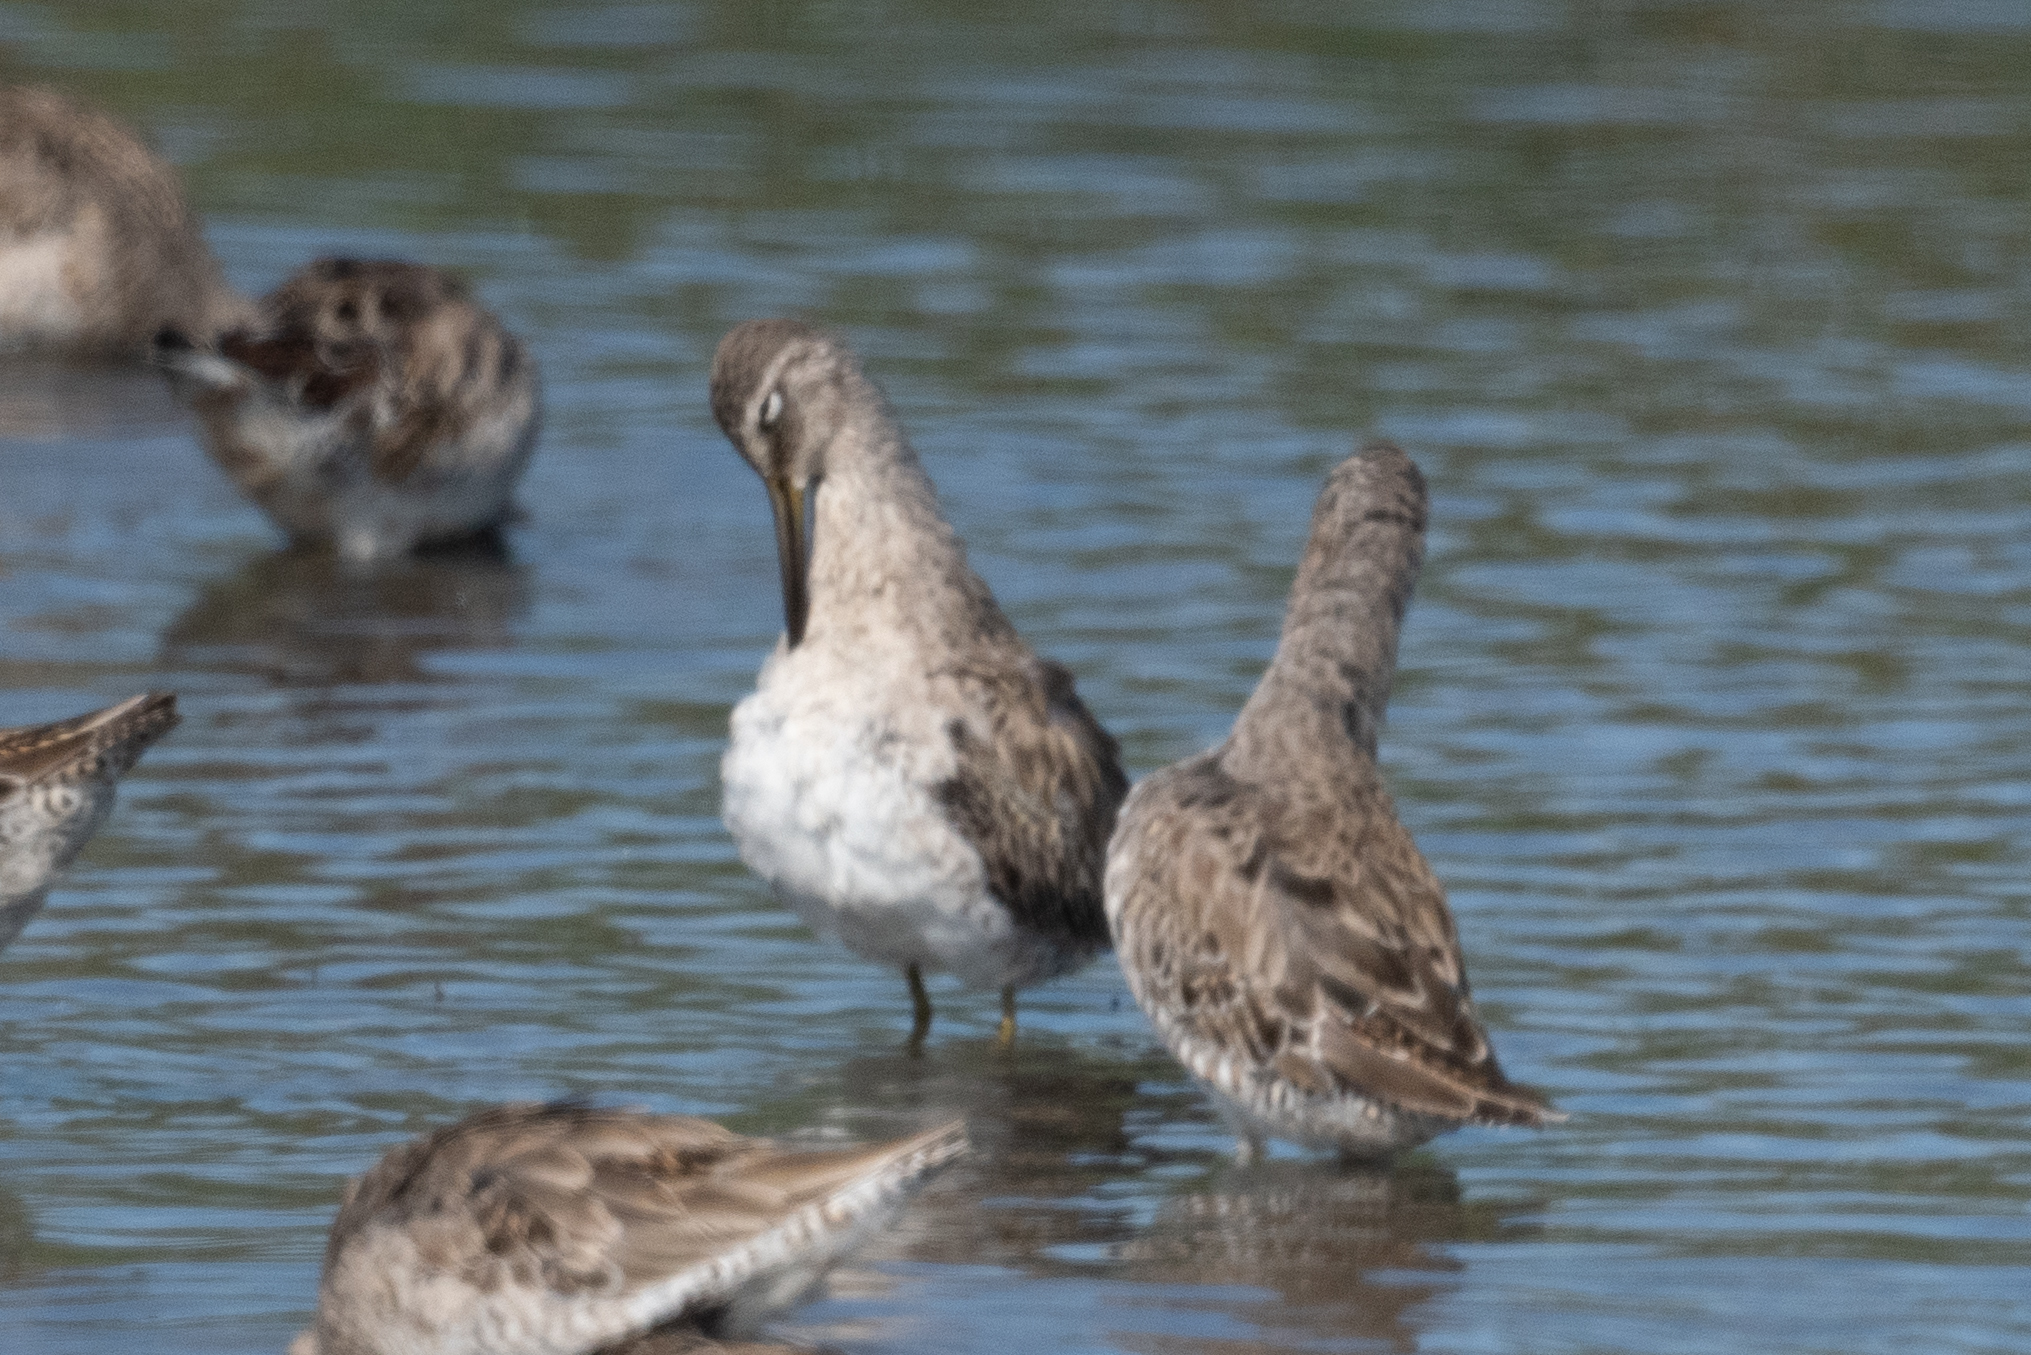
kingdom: Animalia
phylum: Chordata
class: Aves
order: Charadriiformes
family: Scolopacidae
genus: Limnodromus
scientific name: Limnodromus scolopaceus
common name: Long-billed dowitcher
